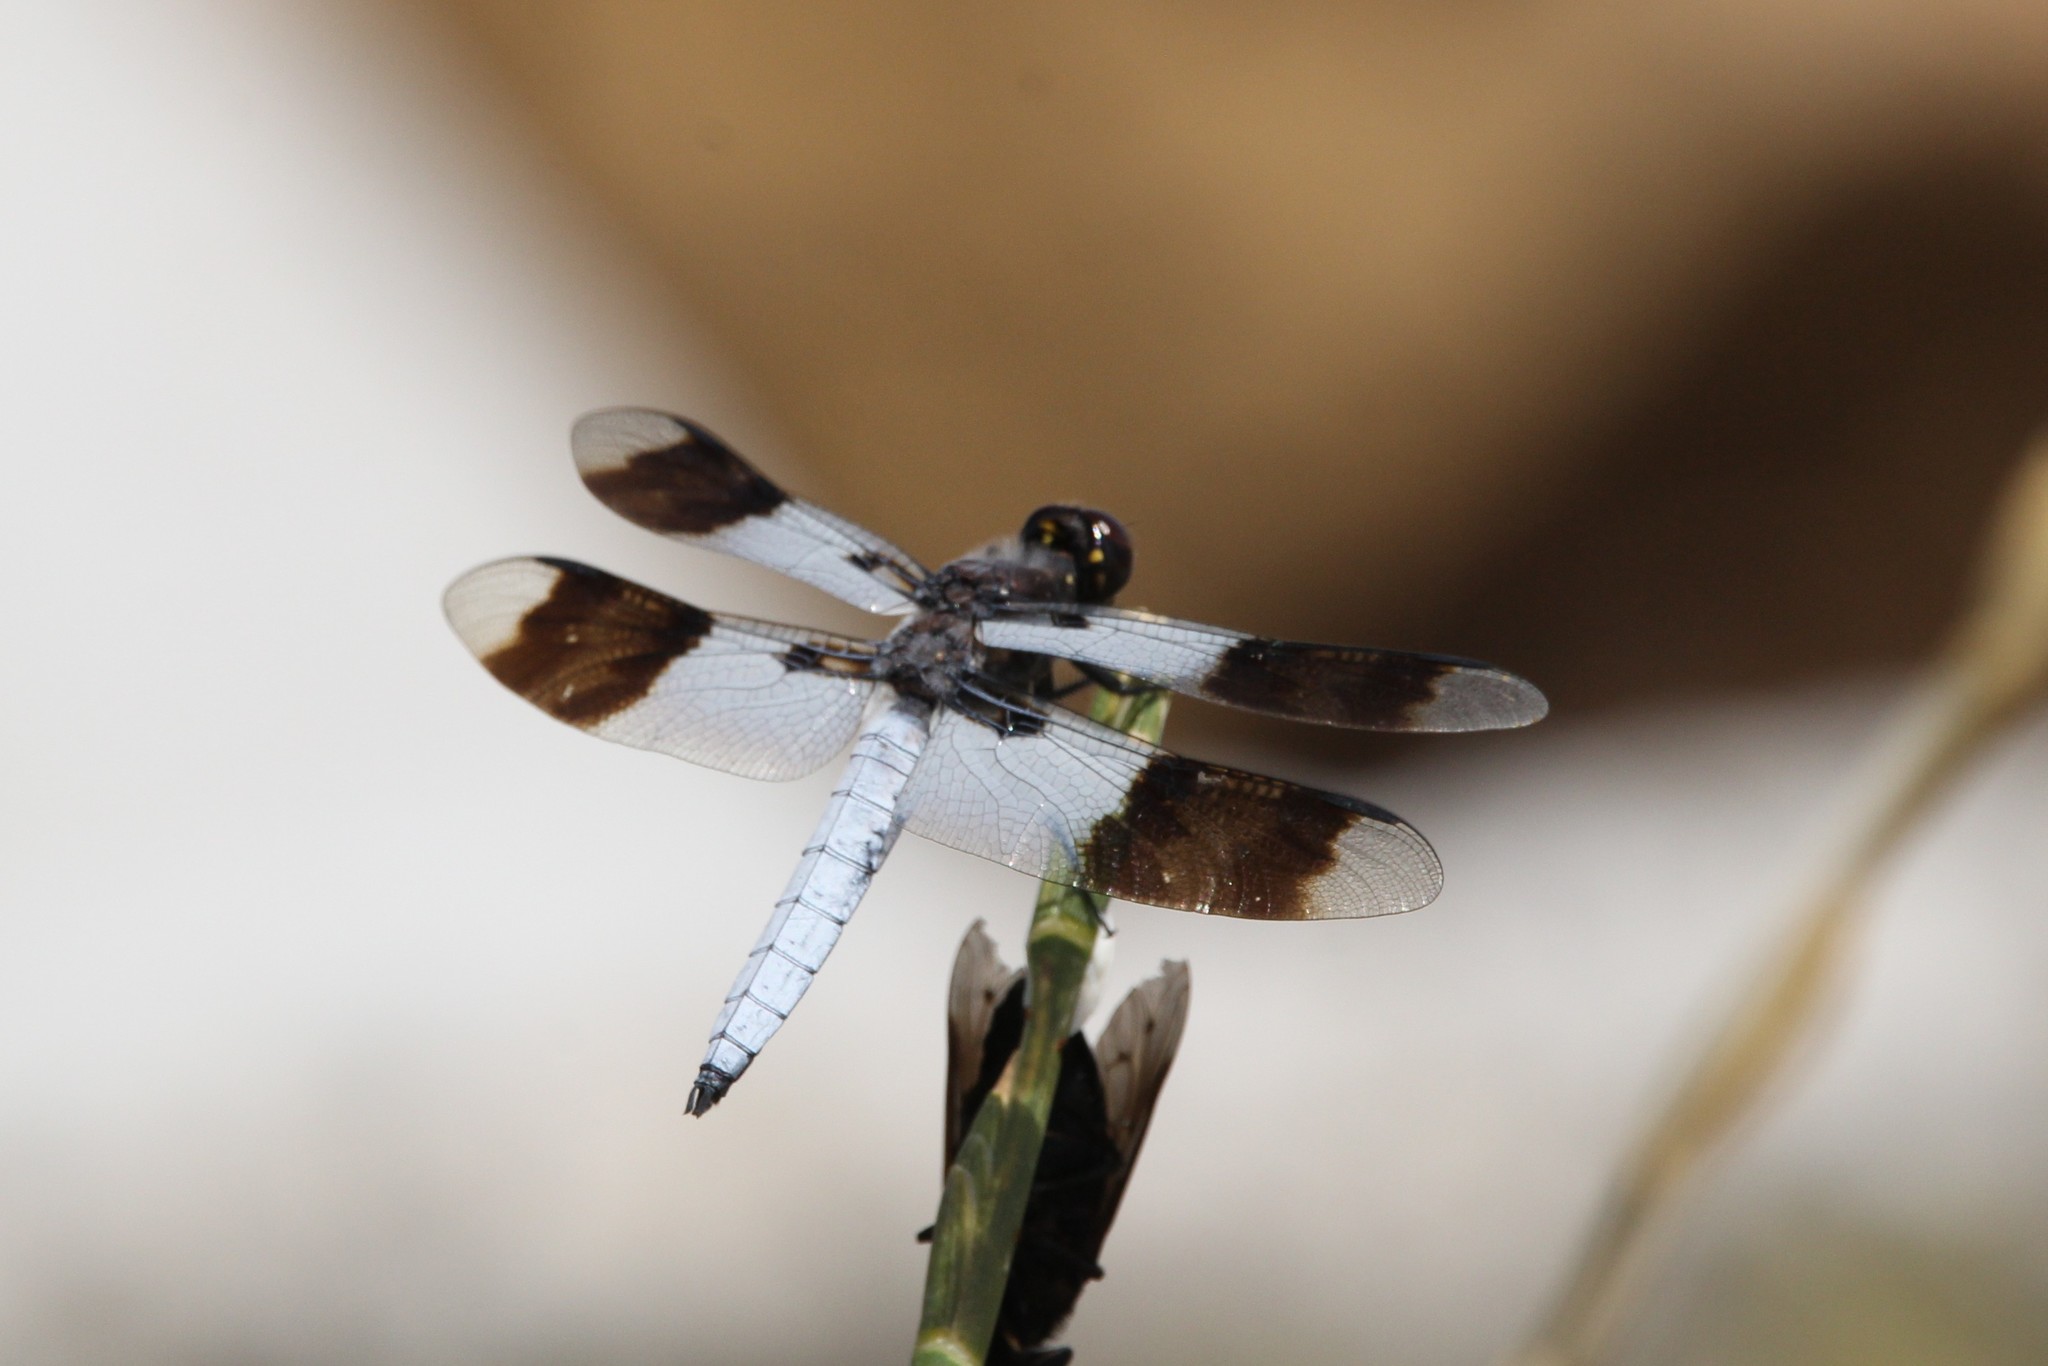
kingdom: Animalia
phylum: Arthropoda
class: Insecta
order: Odonata
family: Libellulidae
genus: Plathemis
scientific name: Plathemis subornata
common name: Desert whitetail
